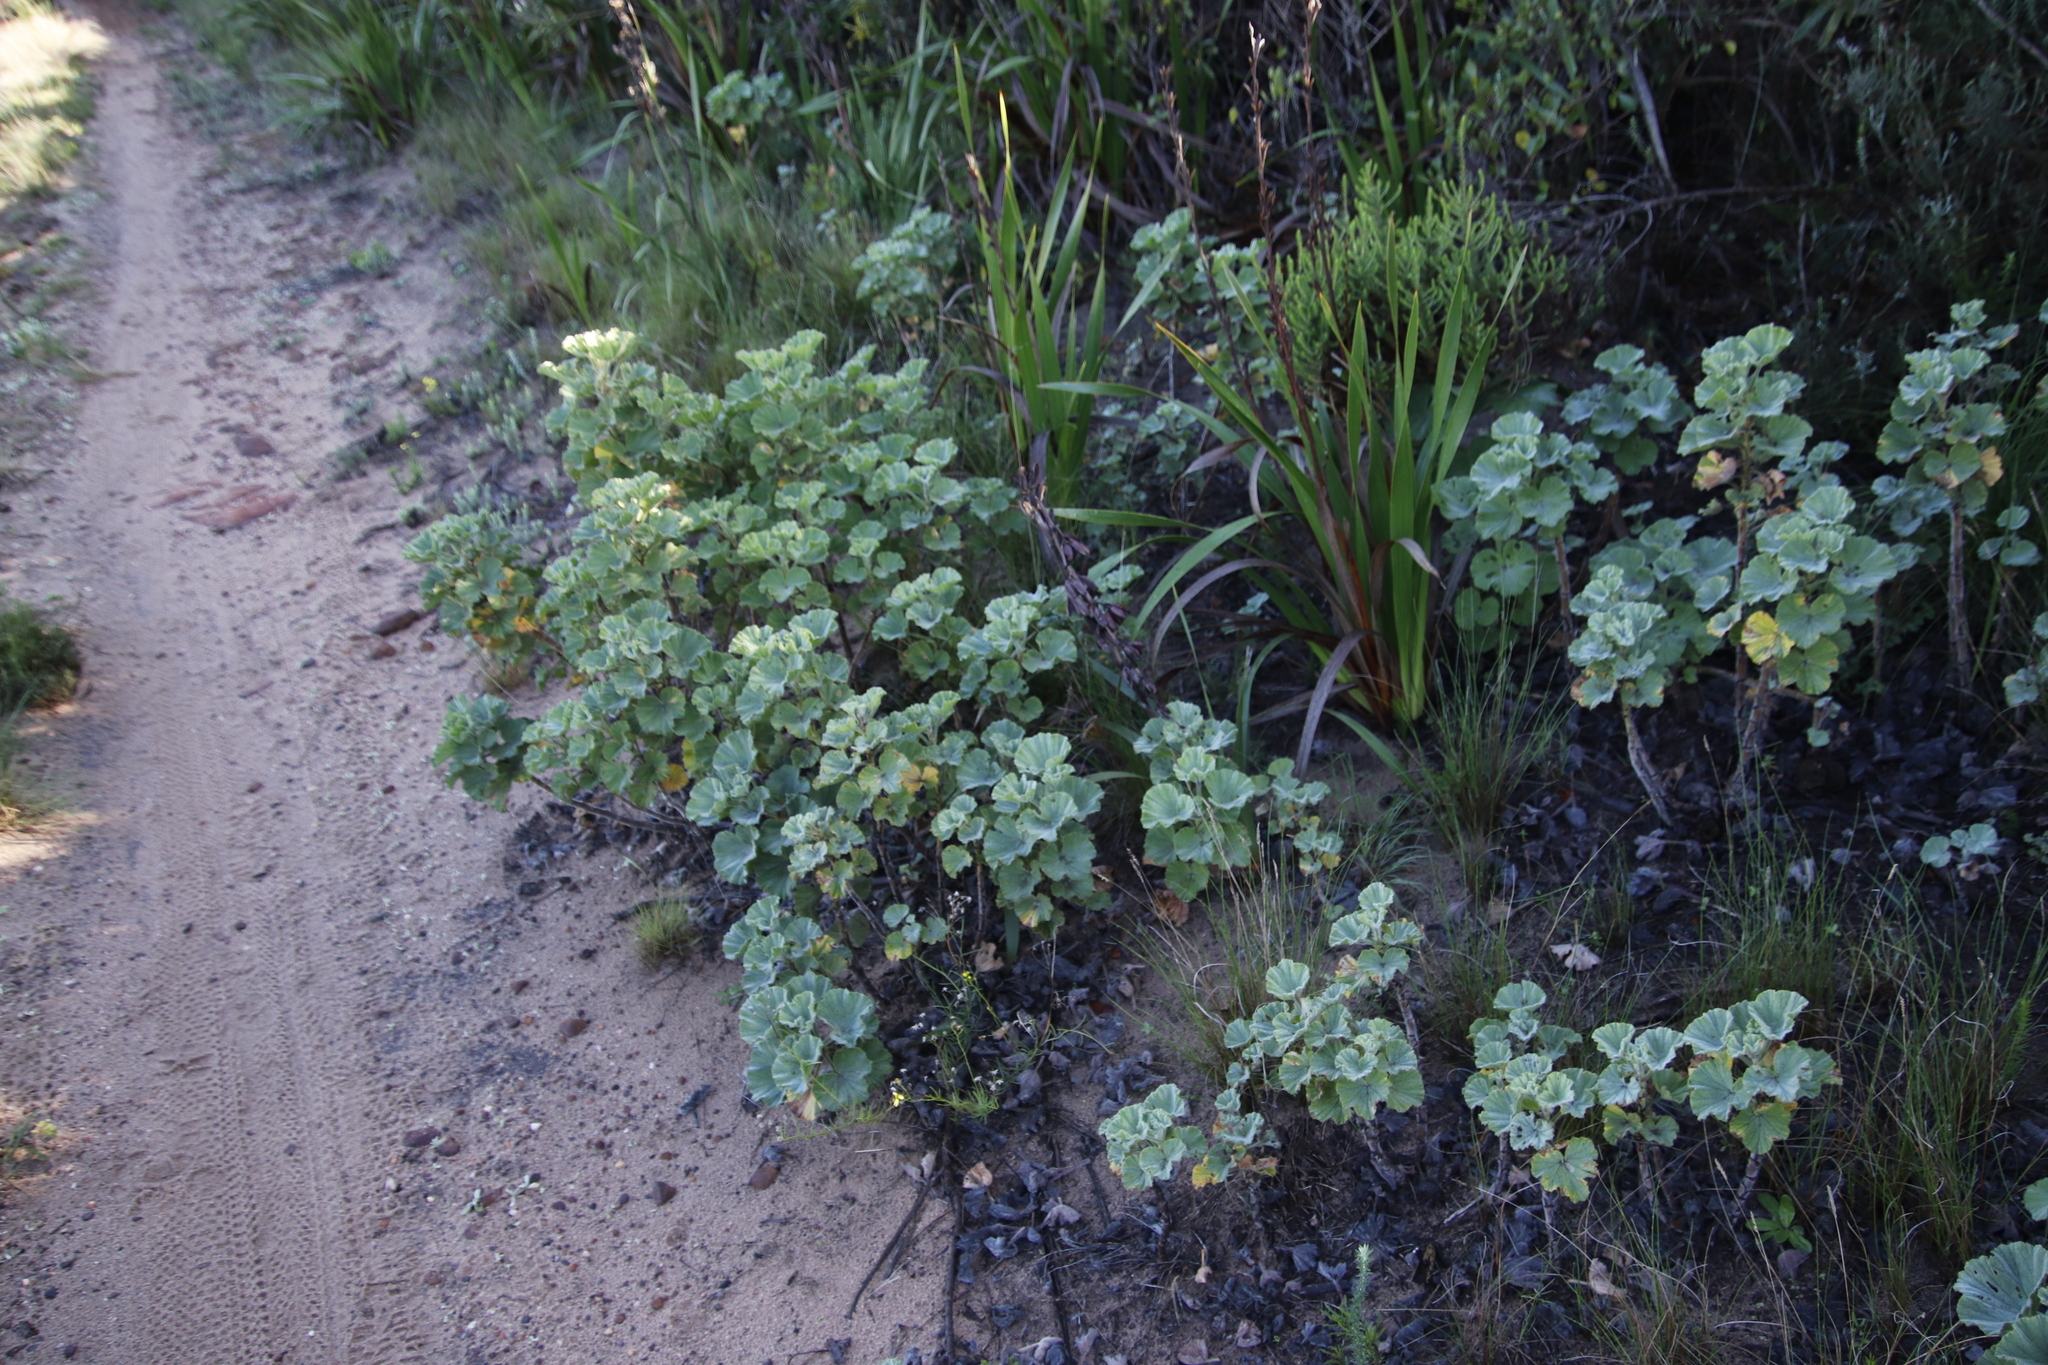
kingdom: Plantae
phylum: Tracheophyta
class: Magnoliopsida
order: Geraniales
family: Geraniaceae
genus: Pelargonium
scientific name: Pelargonium cucullatum
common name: Tree pelargonium
